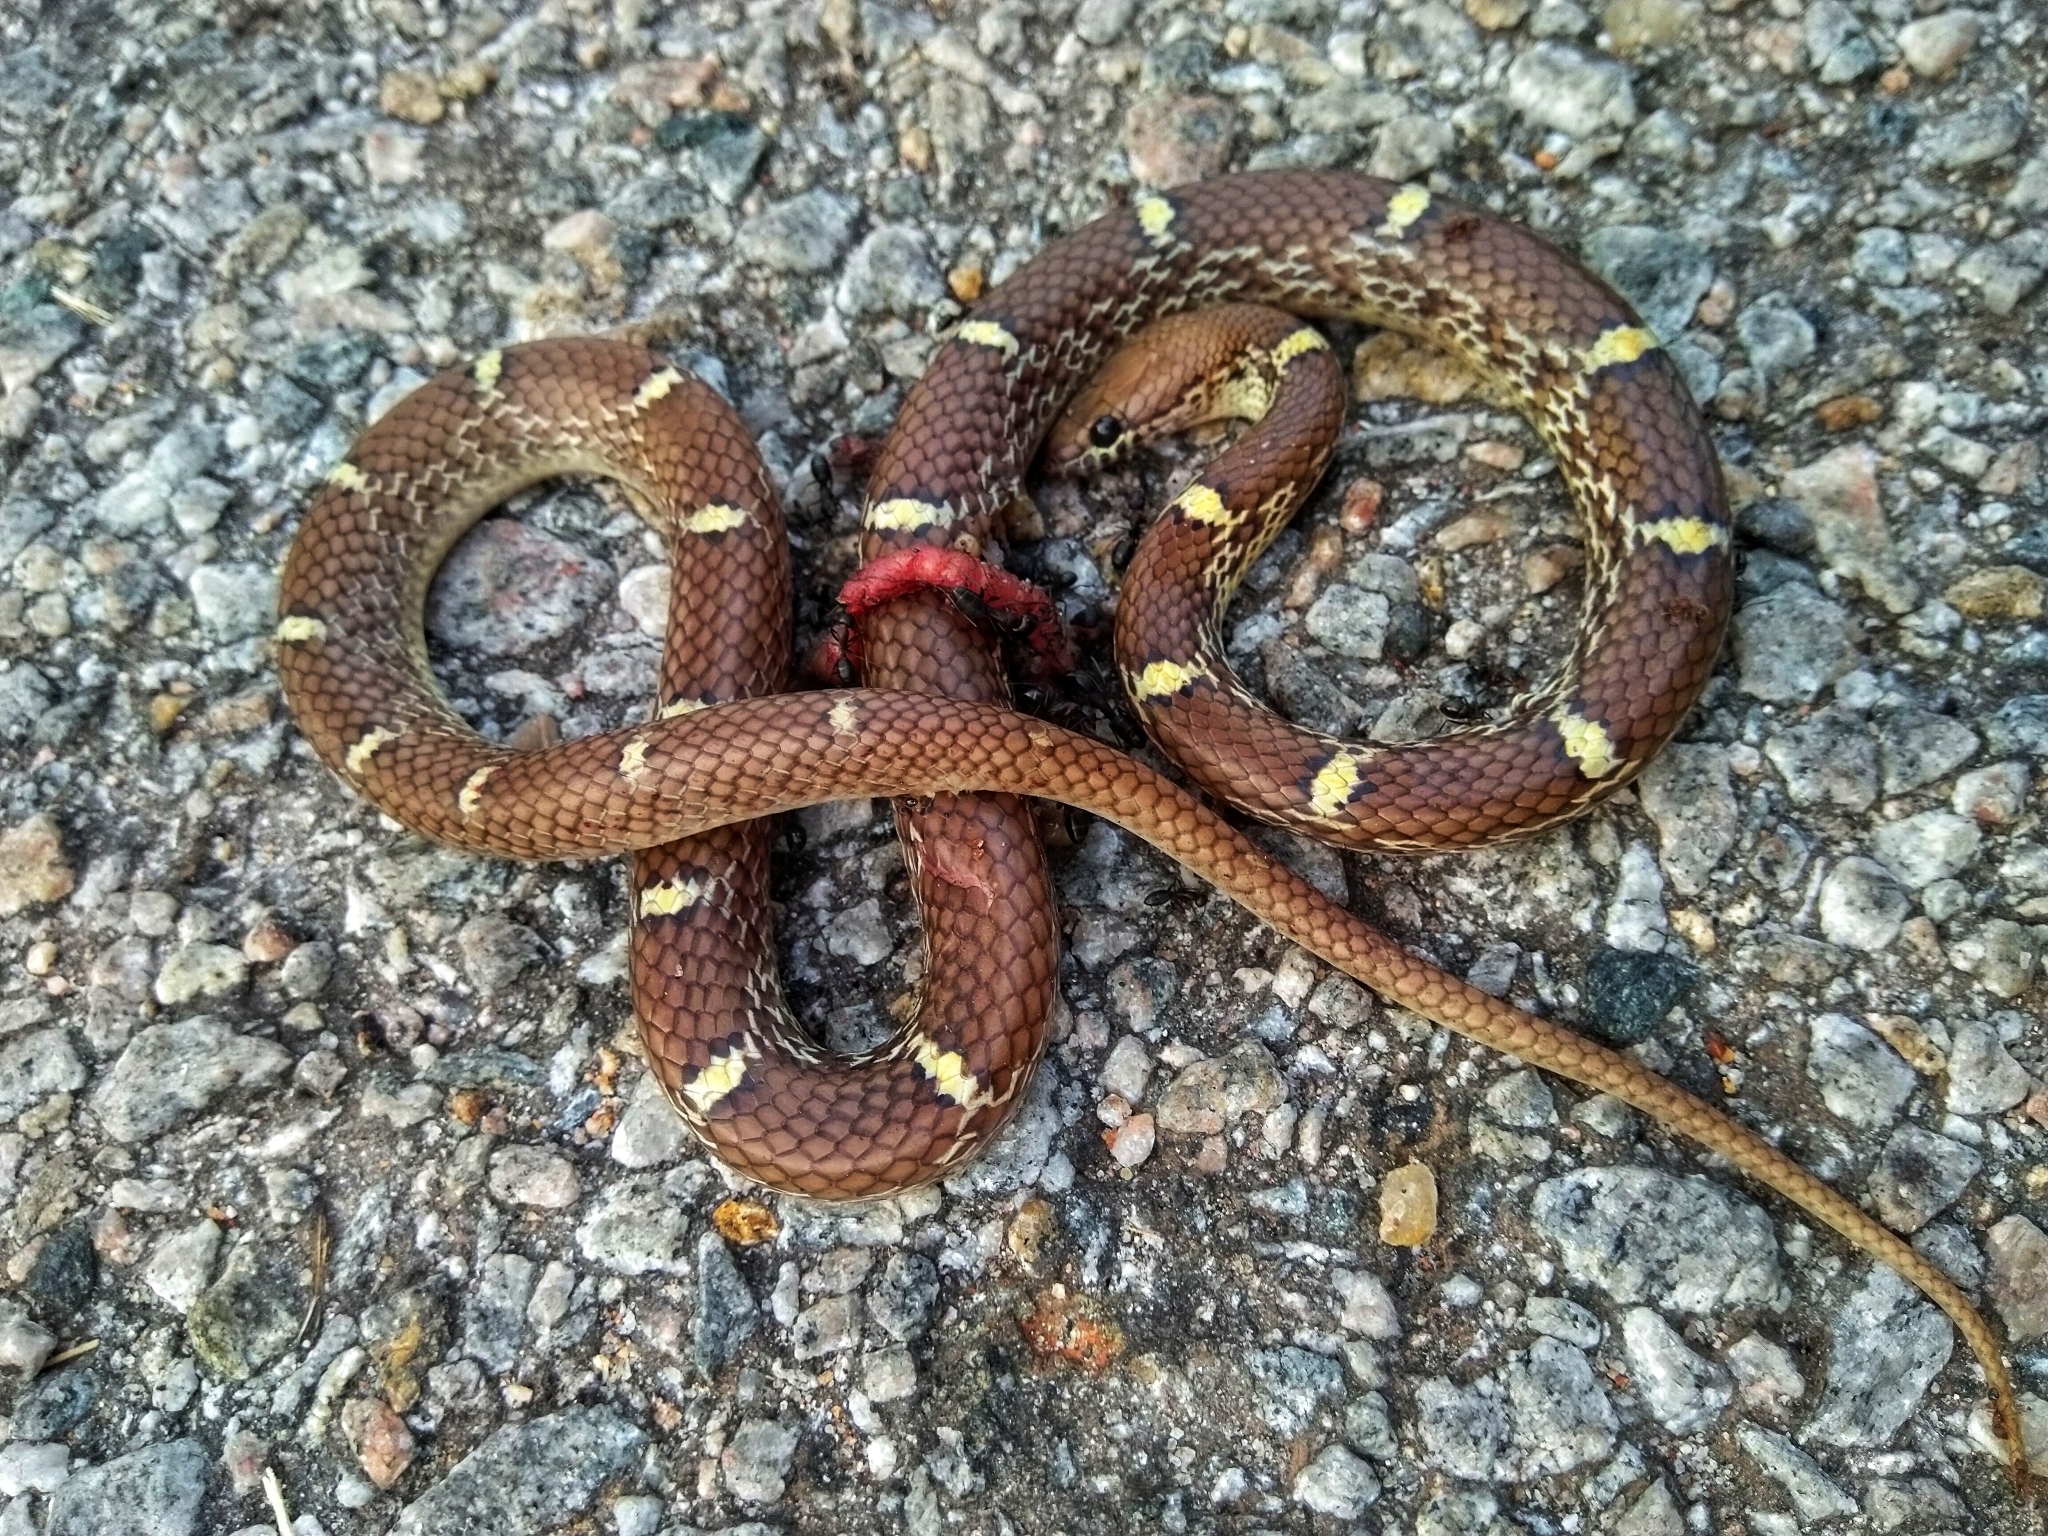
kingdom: Animalia
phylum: Chordata
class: Squamata
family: Colubridae
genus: Lycodon
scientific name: Lycodon fasciolatus
